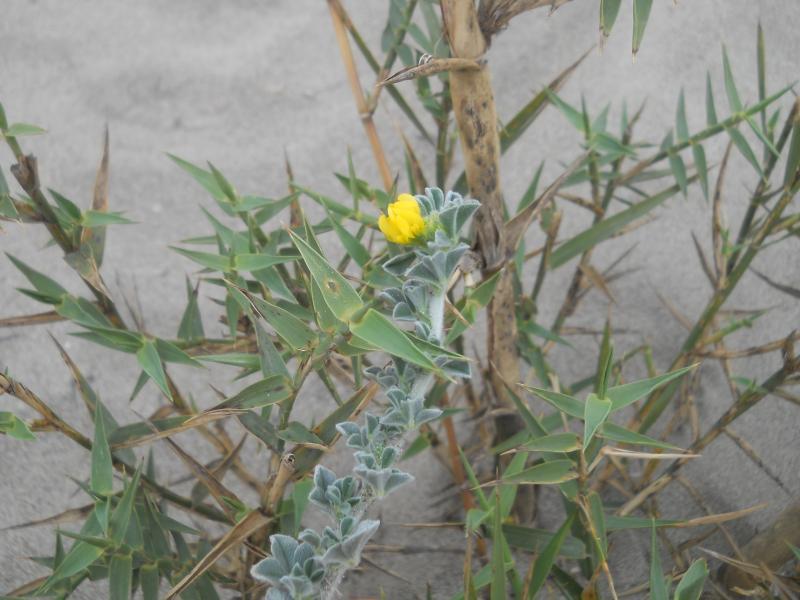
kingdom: Plantae
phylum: Tracheophyta
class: Magnoliopsida
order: Fabales
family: Fabaceae
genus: Medicago
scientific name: Medicago marina
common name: Sea medick
